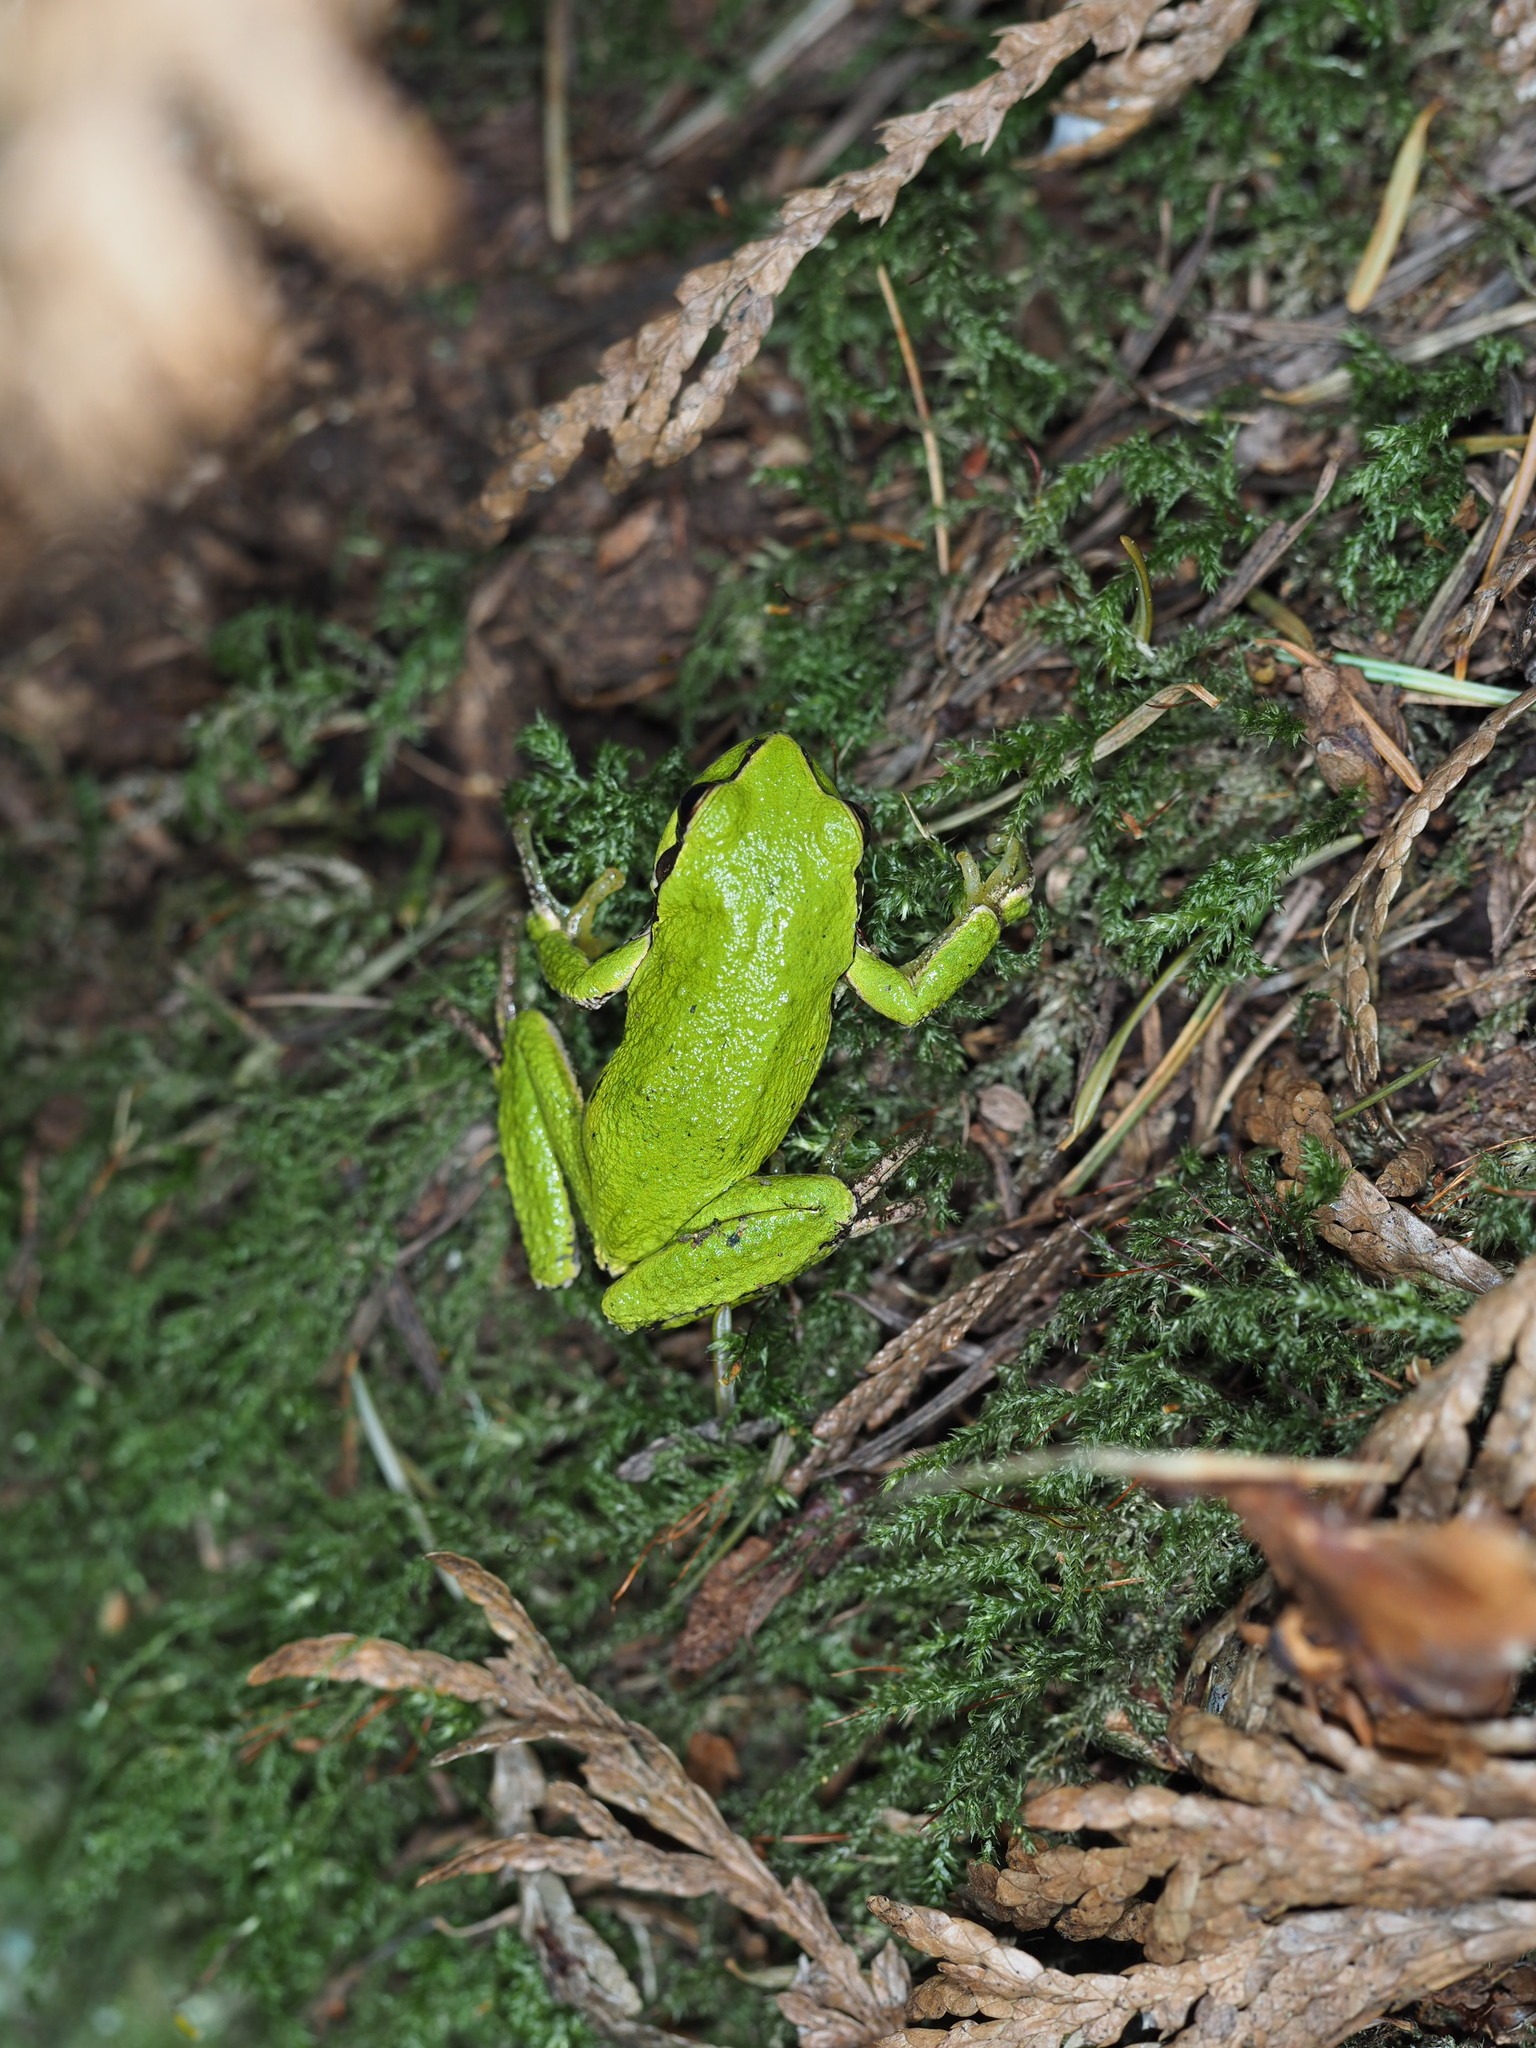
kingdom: Animalia
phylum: Chordata
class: Amphibia
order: Anura
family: Hylidae
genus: Pseudacris
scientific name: Pseudacris regilla
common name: Pacific chorus frog
